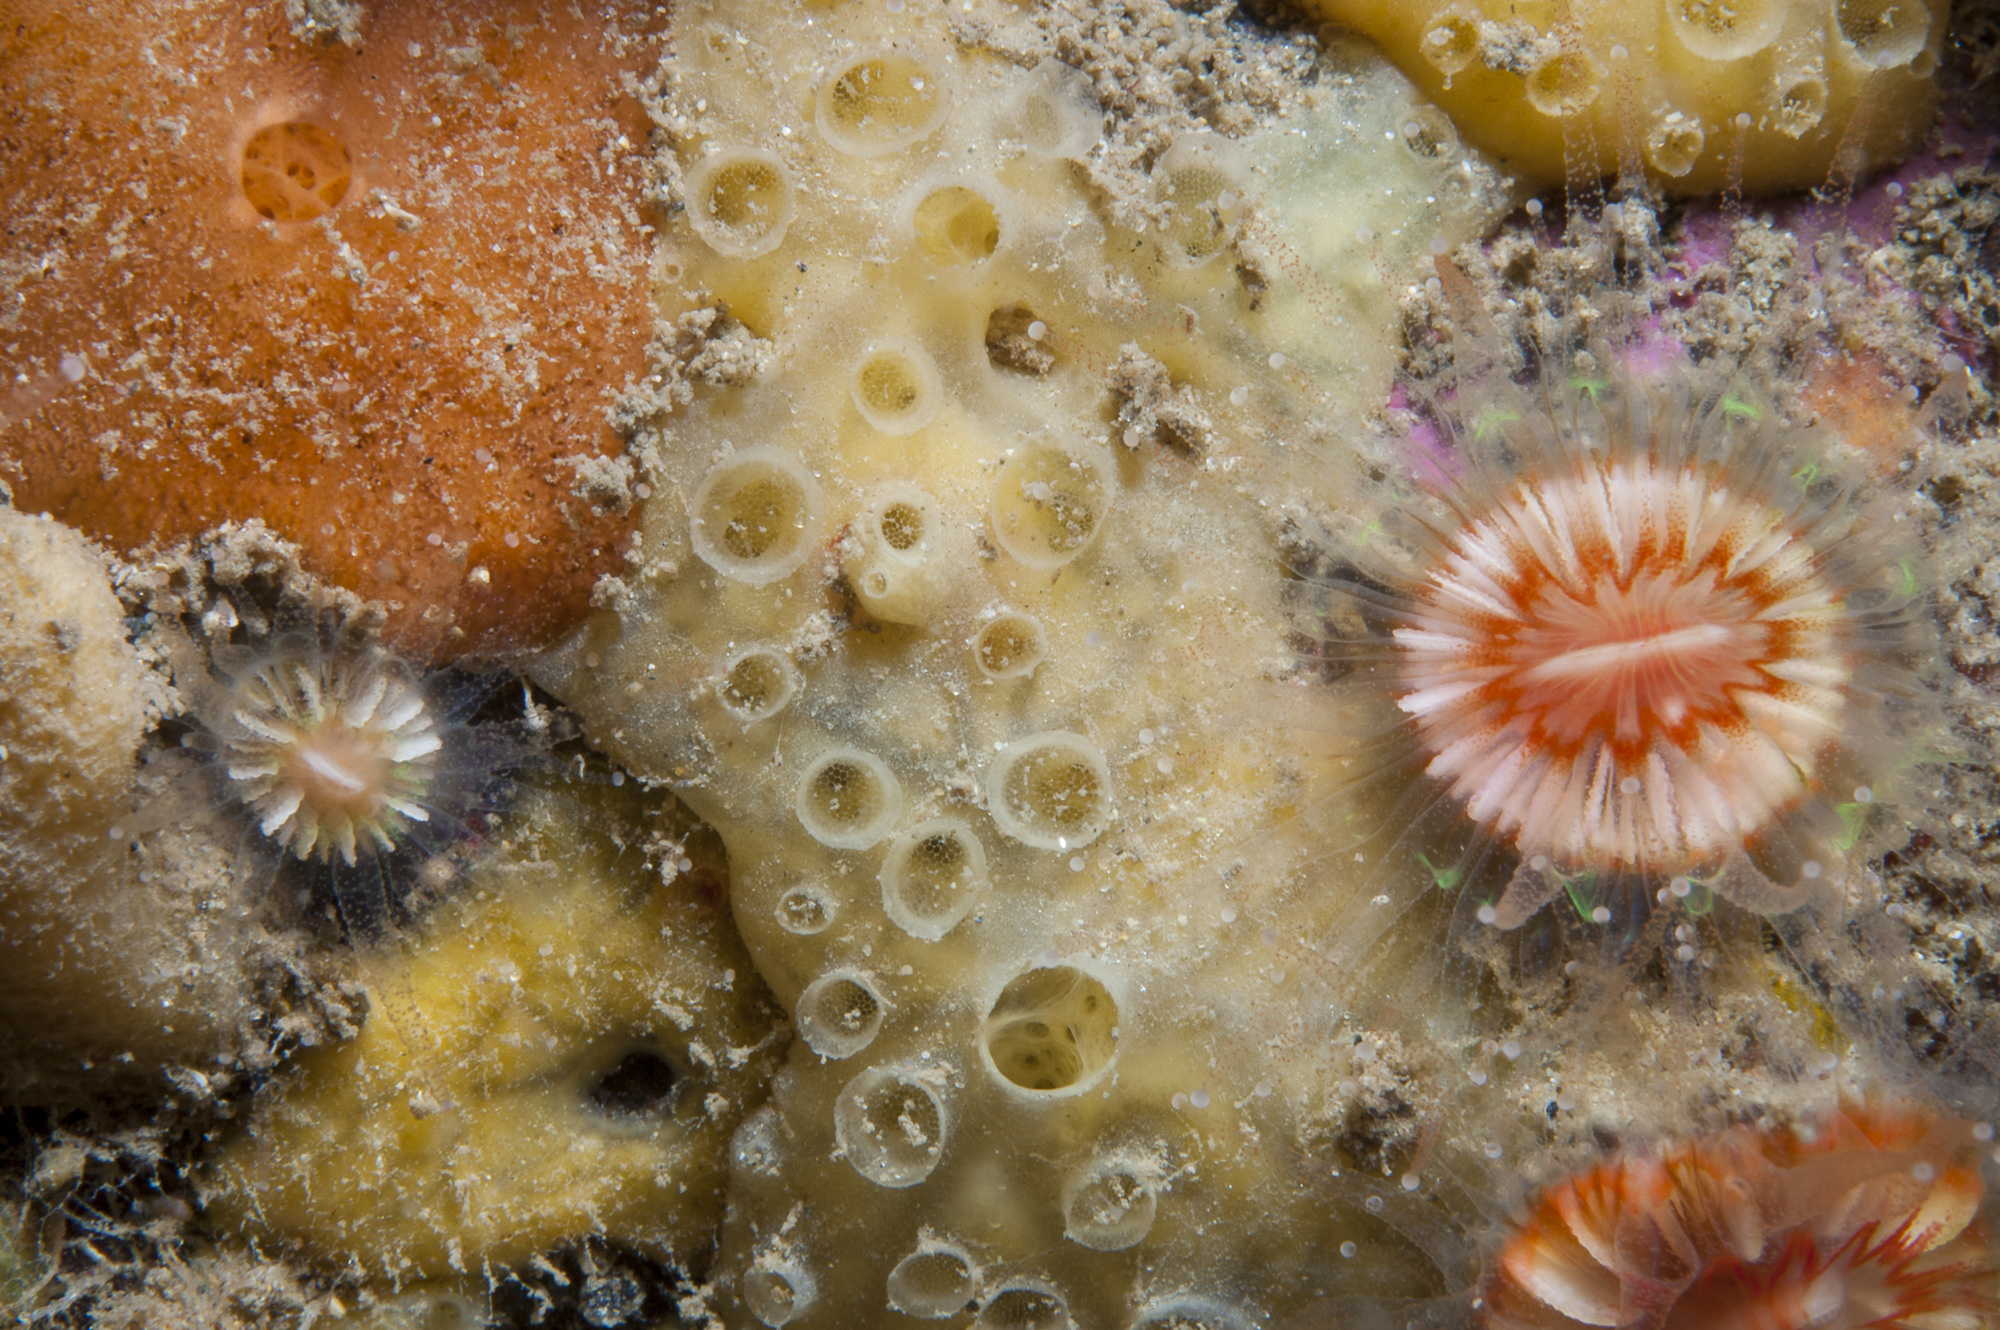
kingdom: Animalia
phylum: Porifera
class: Demospongiae
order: Poecilosclerida
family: Coelosphaeridae
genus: Lissodendoryx
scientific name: Lissodendoryx jenjonesae
